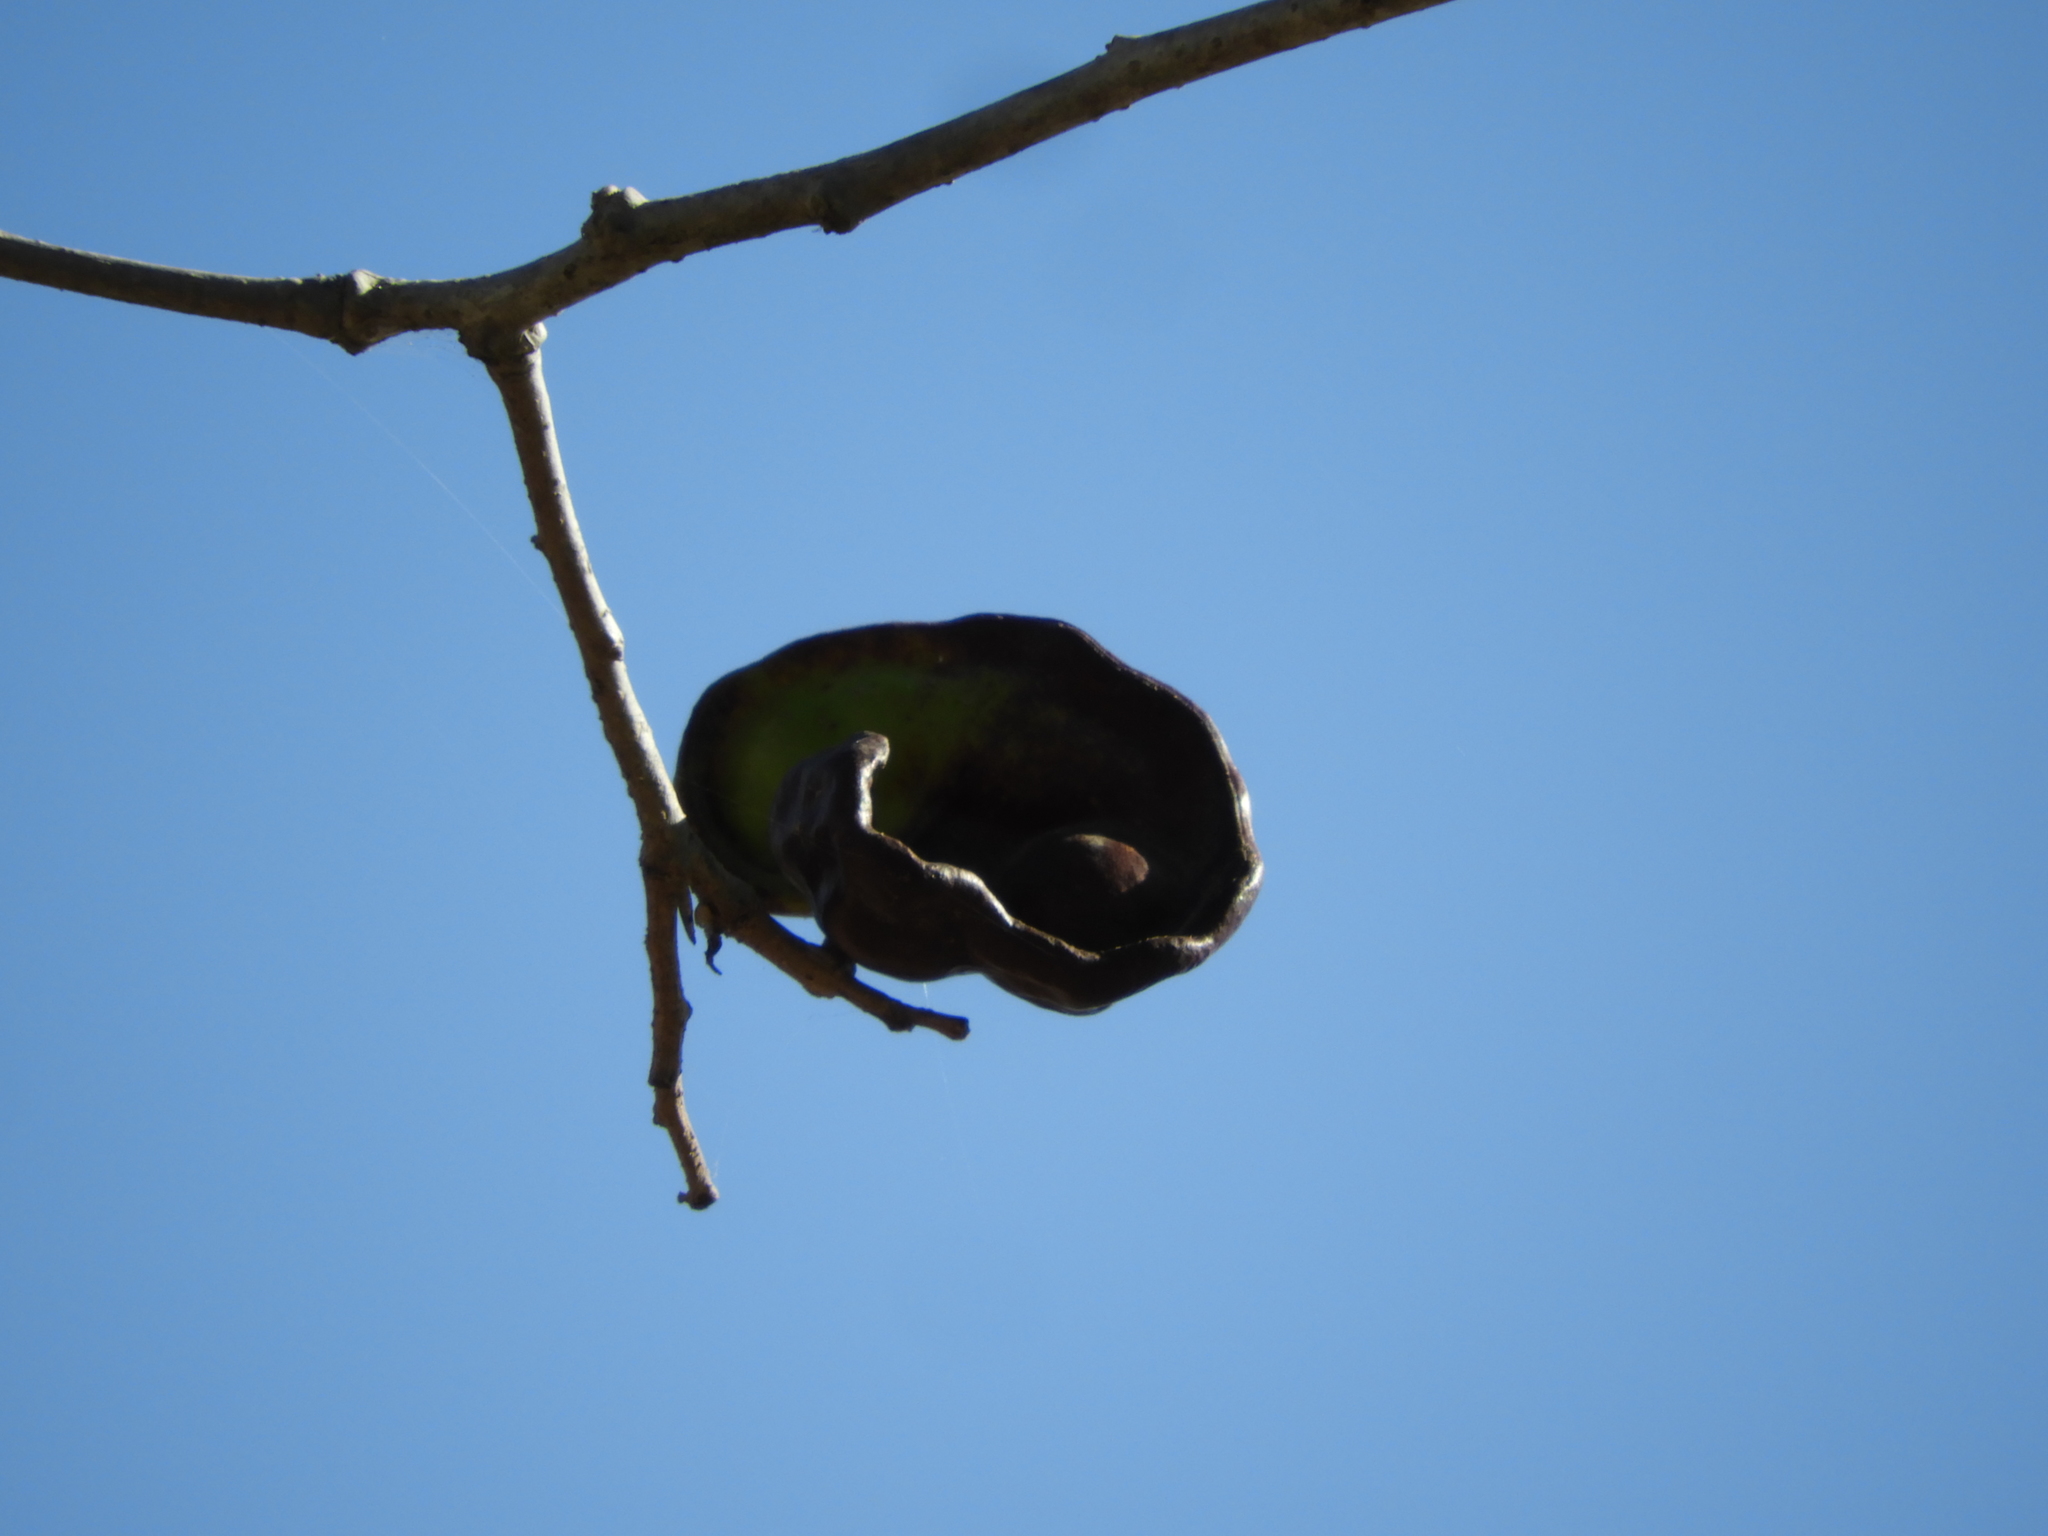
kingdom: Plantae
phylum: Tracheophyta
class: Magnoliopsida
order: Fabales
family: Fabaceae
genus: Enterolobium
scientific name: Enterolobium cyclocarpum
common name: Ear tree
